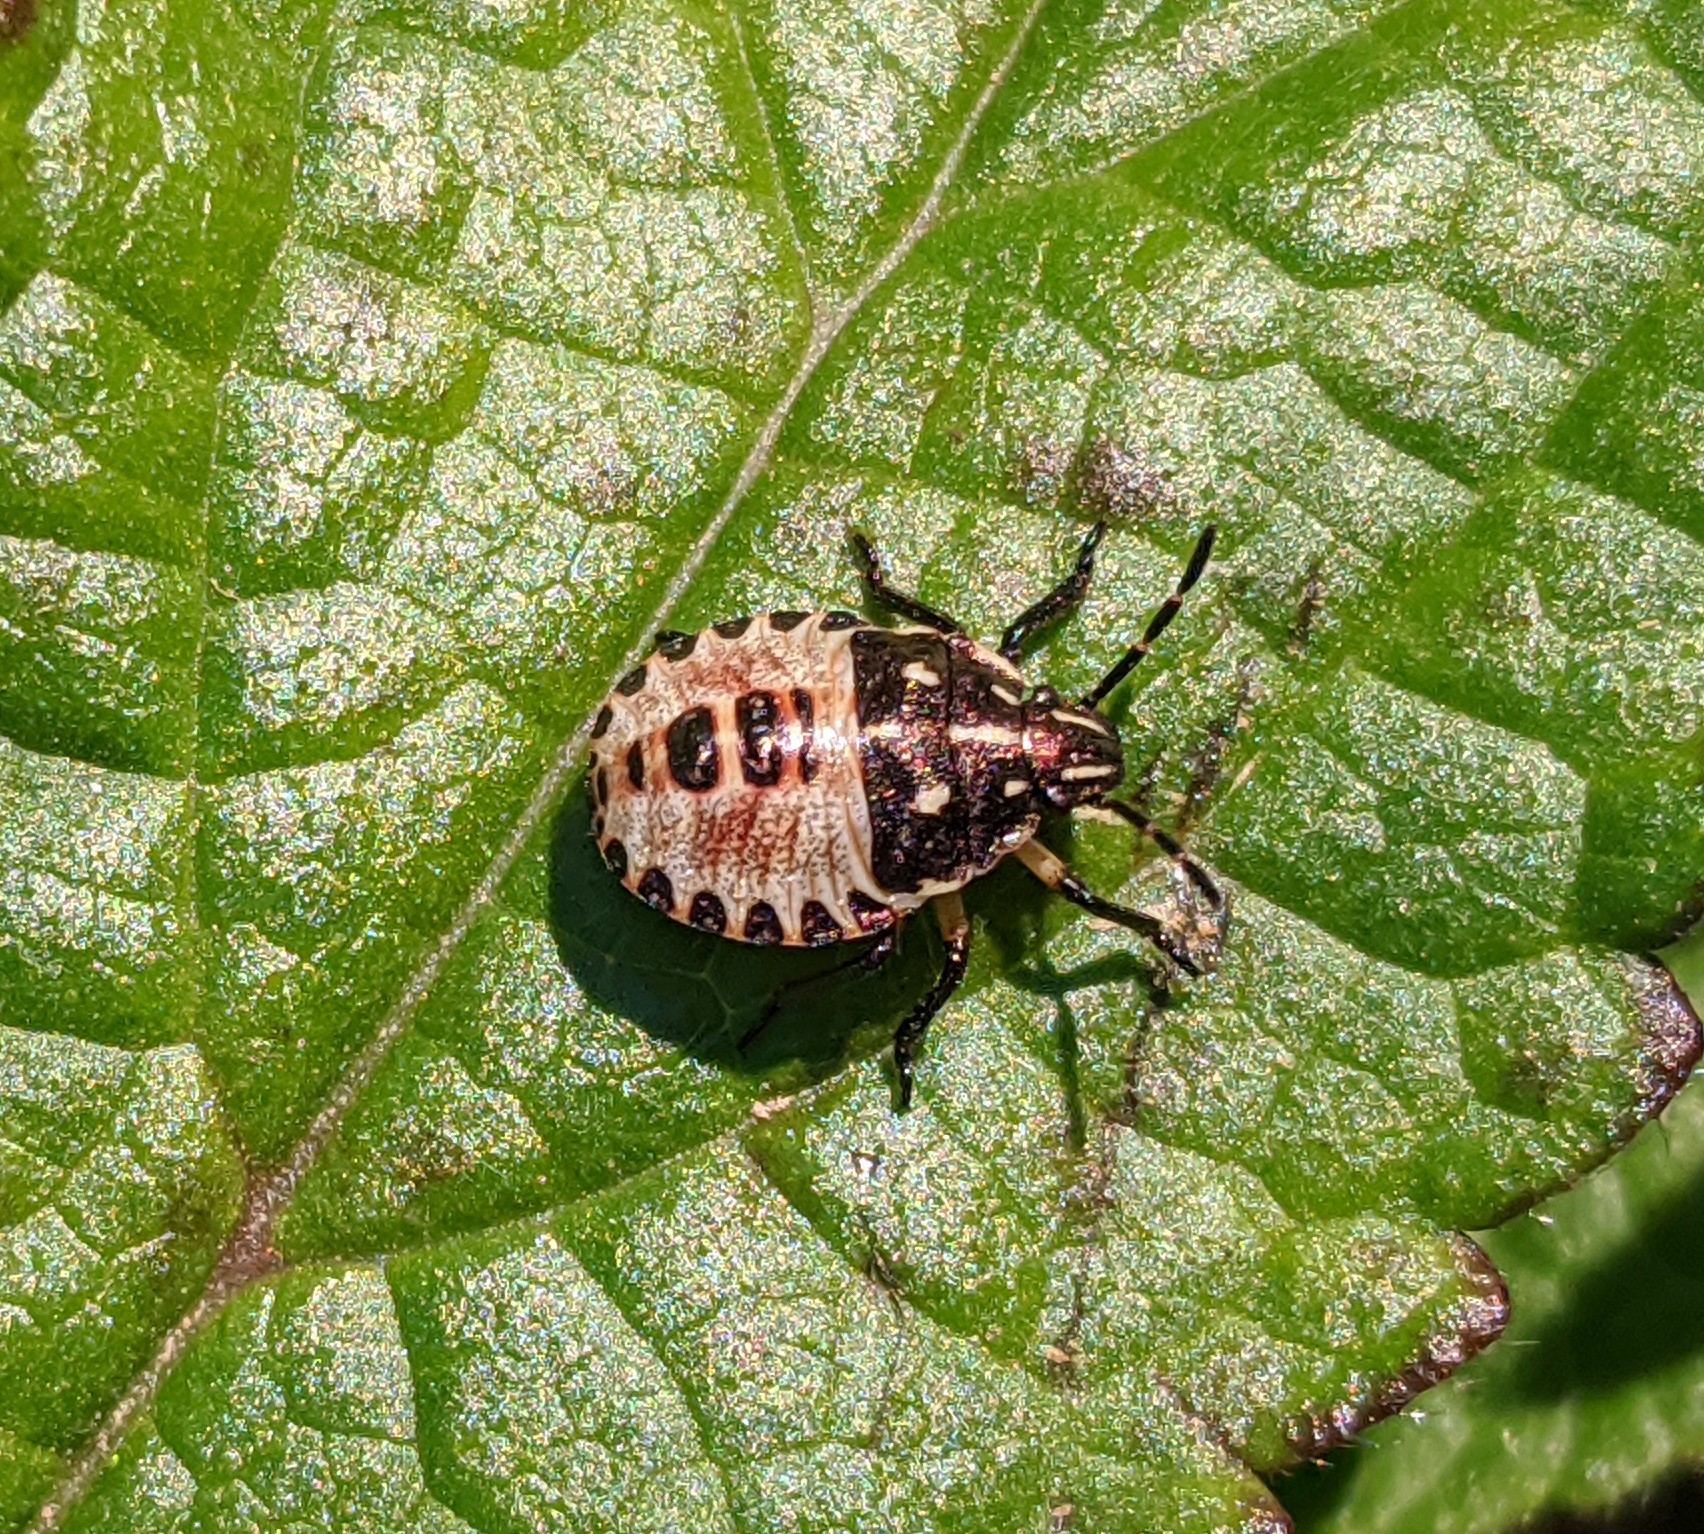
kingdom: Animalia
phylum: Arthropoda
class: Insecta
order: Hemiptera
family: Pentatomidae
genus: Carpocoris
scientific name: Carpocoris purpureipennis
